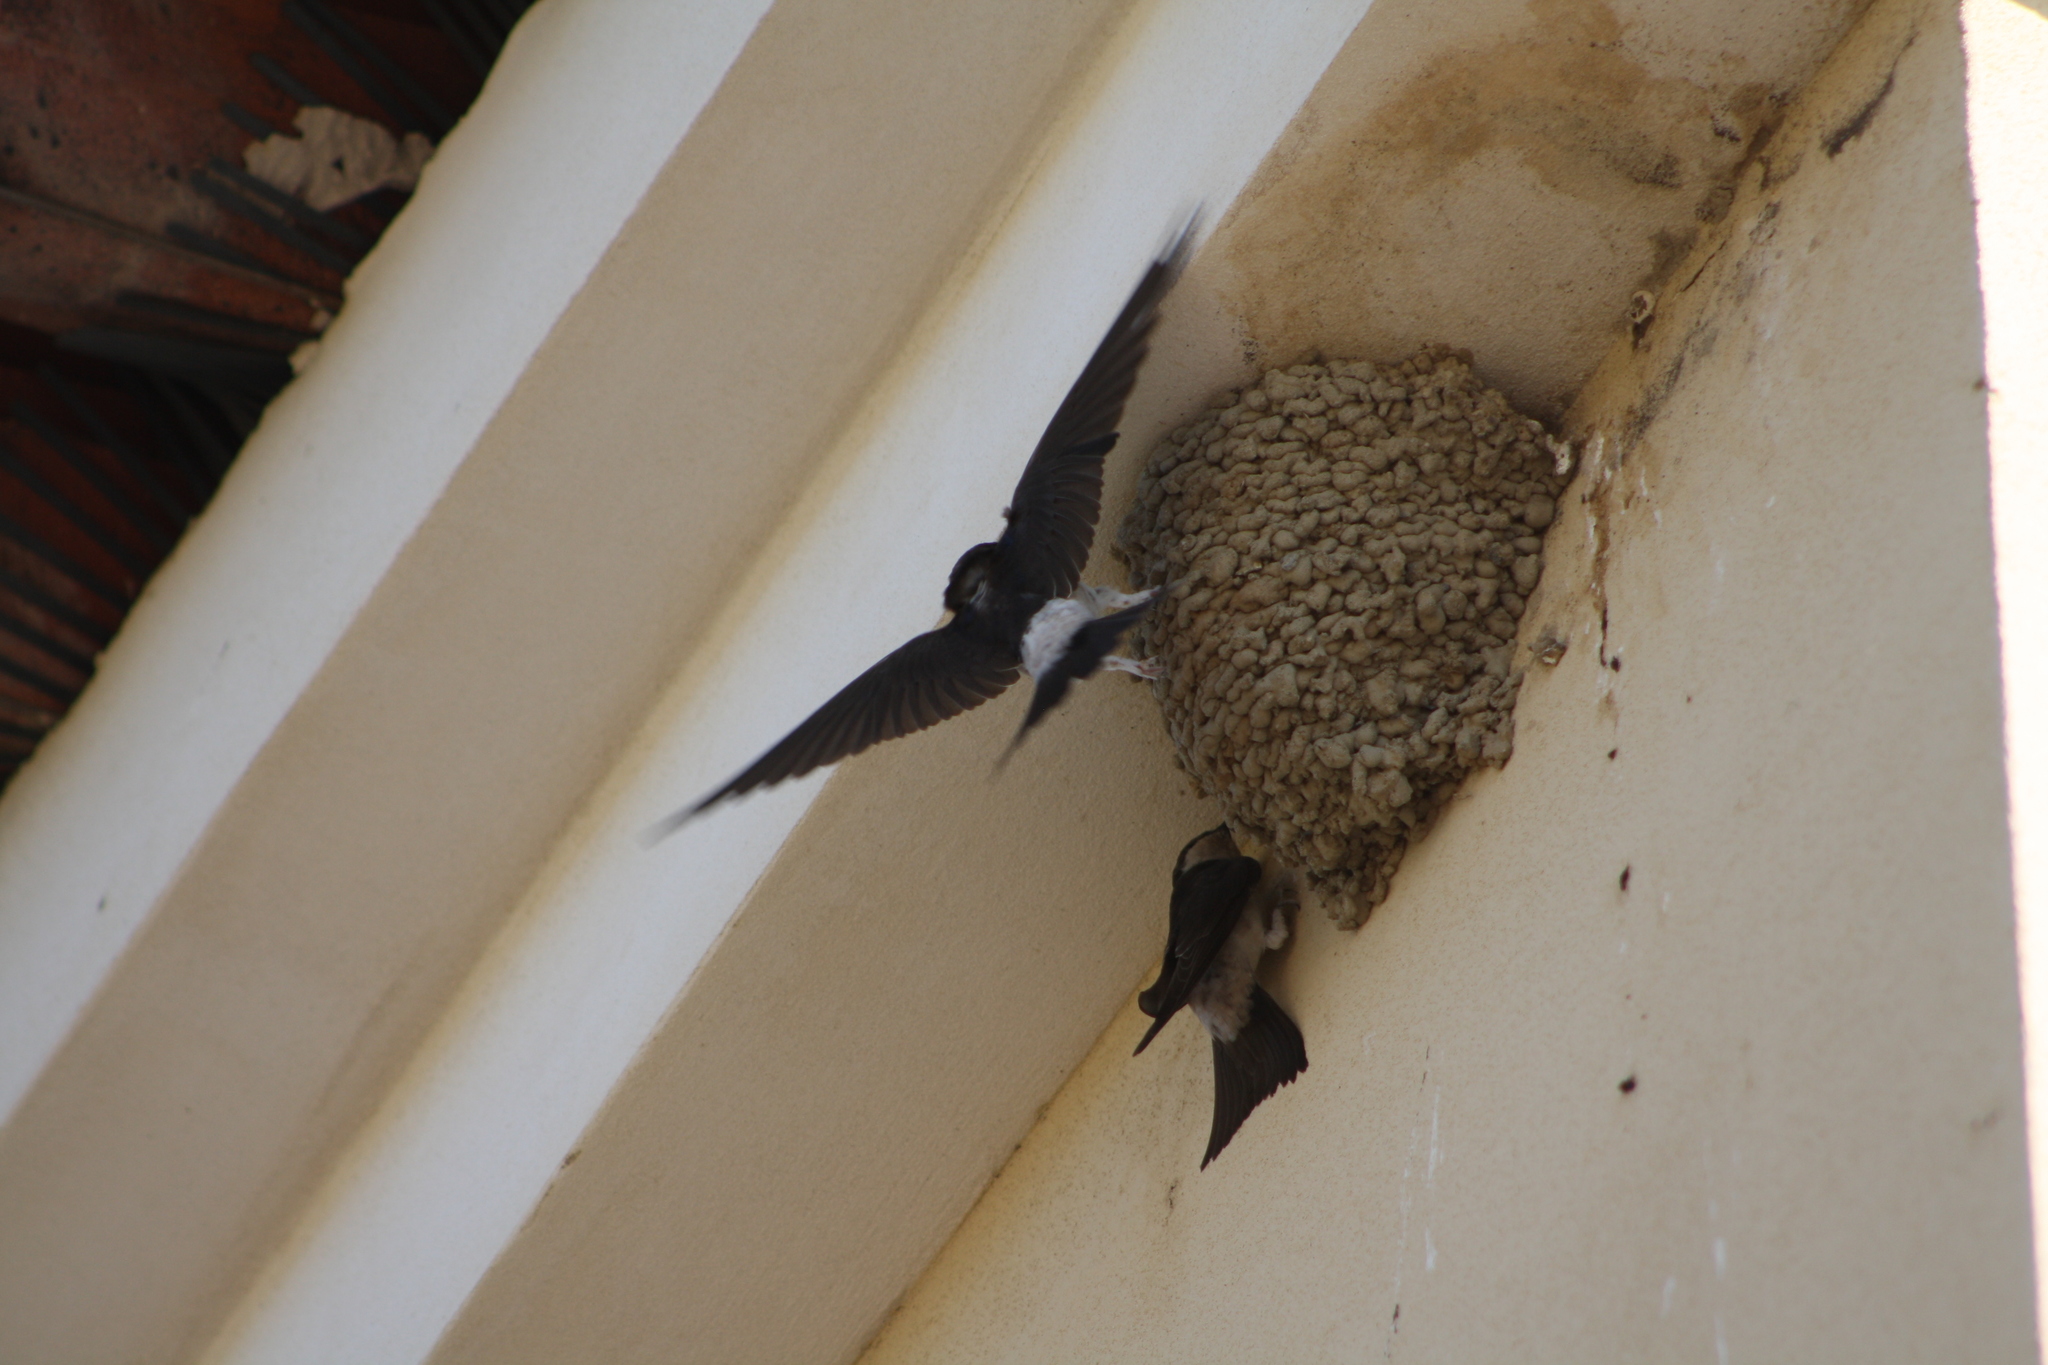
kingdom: Animalia
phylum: Chordata
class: Aves
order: Passeriformes
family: Hirundinidae
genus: Delichon
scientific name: Delichon urbicum
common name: Common house martin
